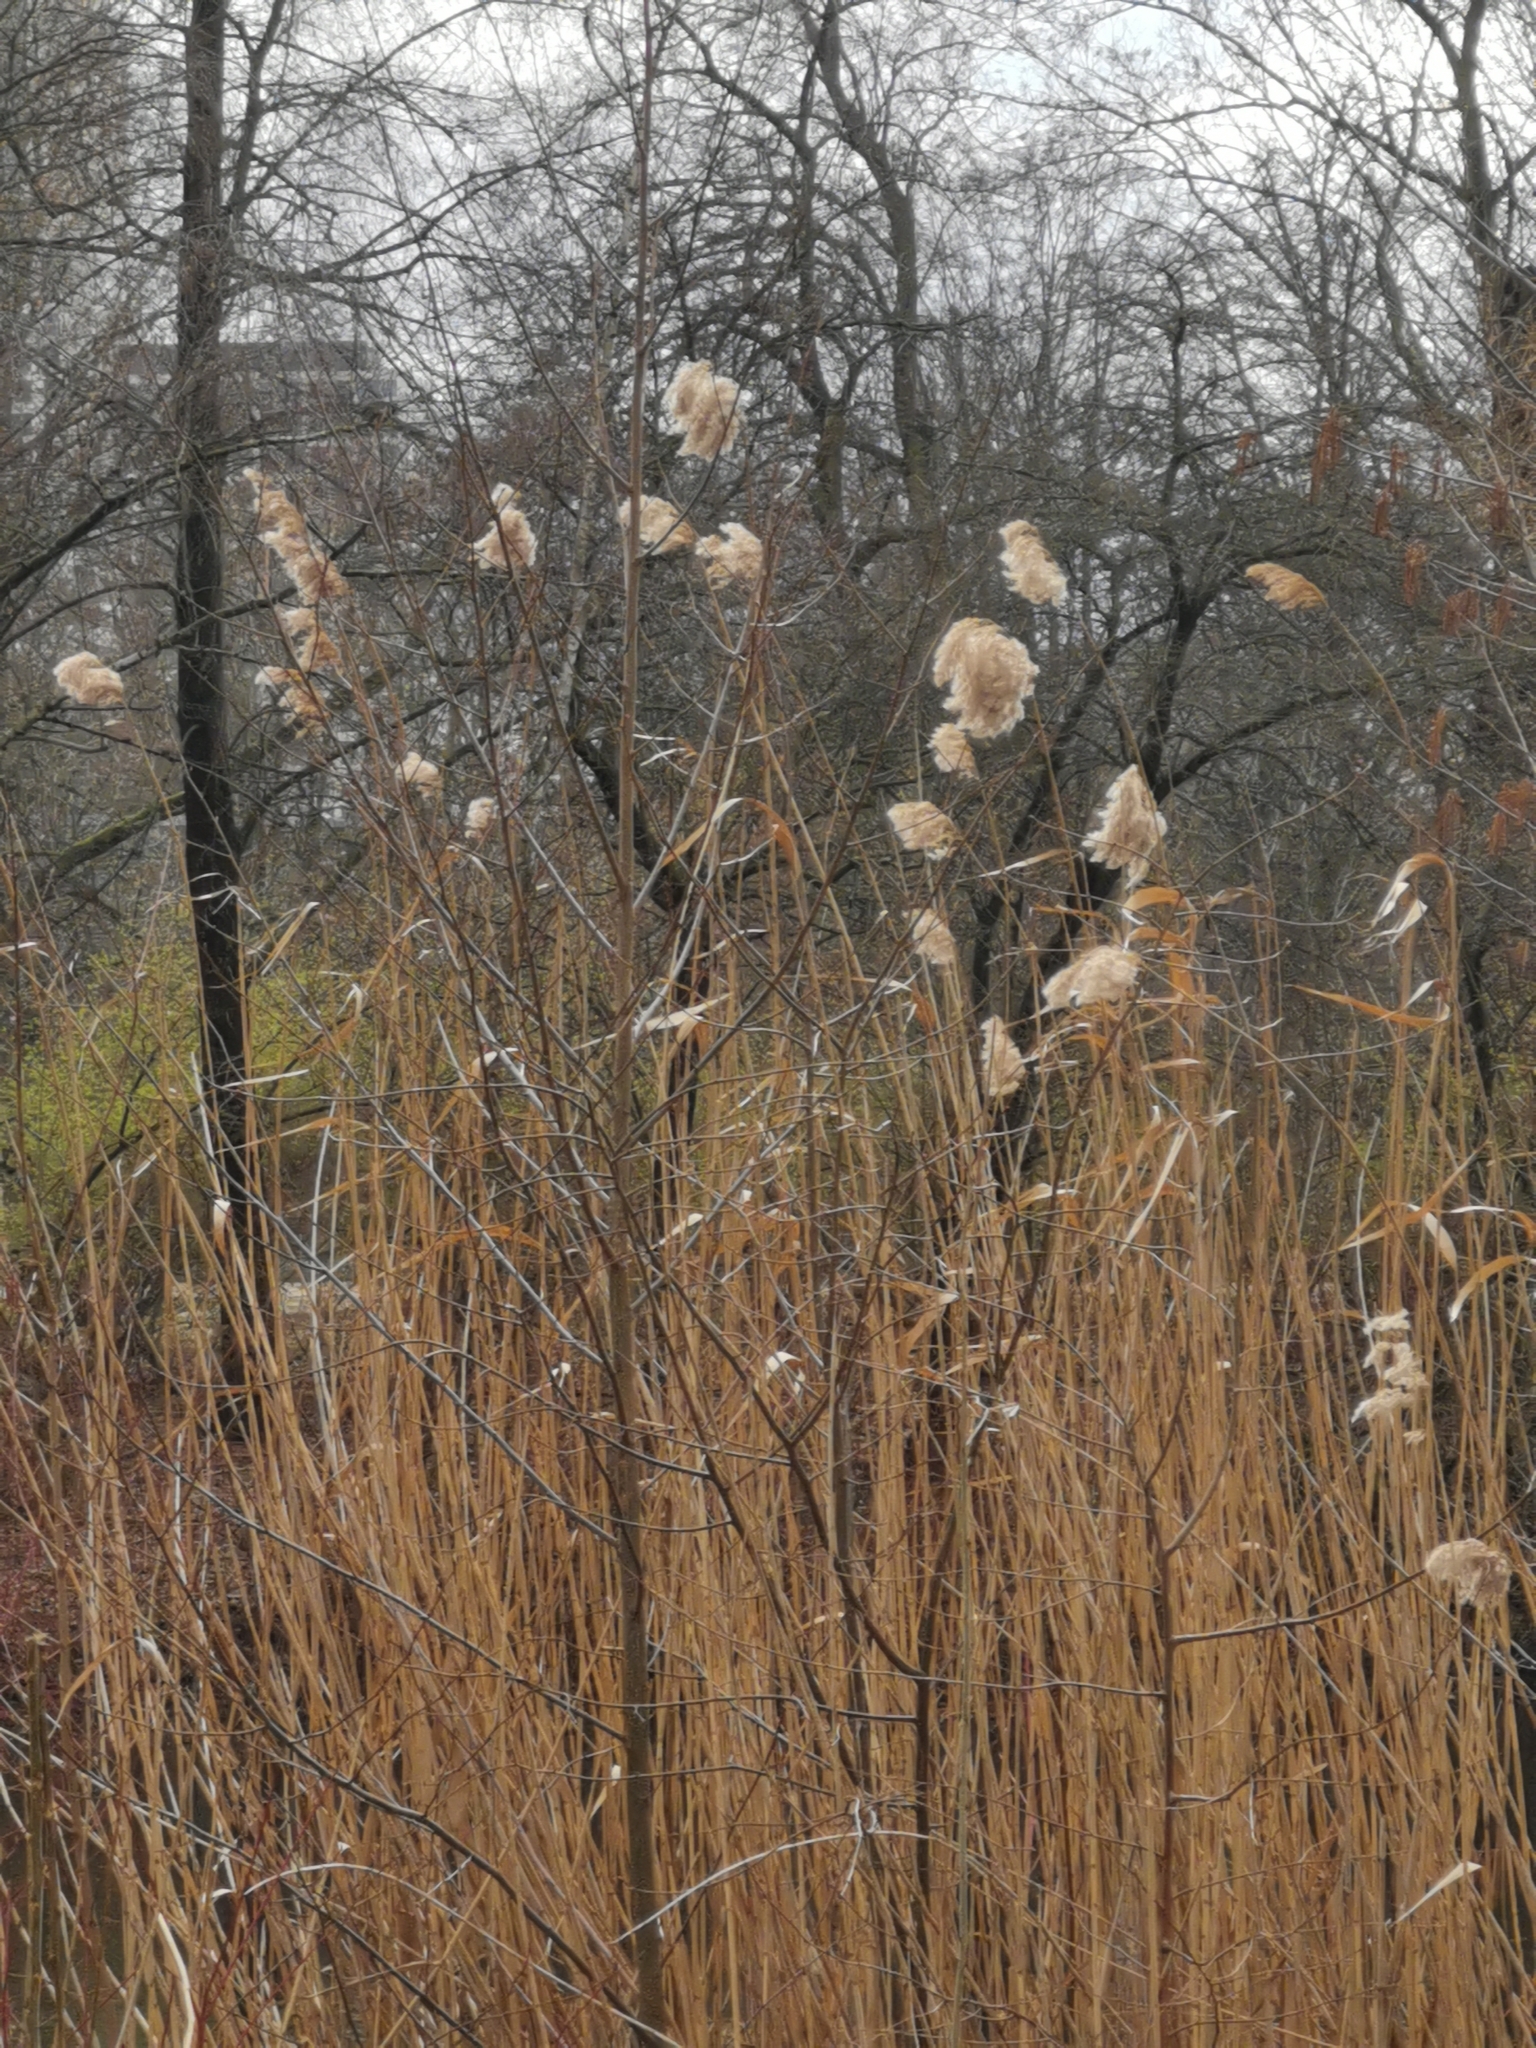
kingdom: Plantae
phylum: Tracheophyta
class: Liliopsida
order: Poales
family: Poaceae
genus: Phragmites
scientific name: Phragmites australis
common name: Common reed
